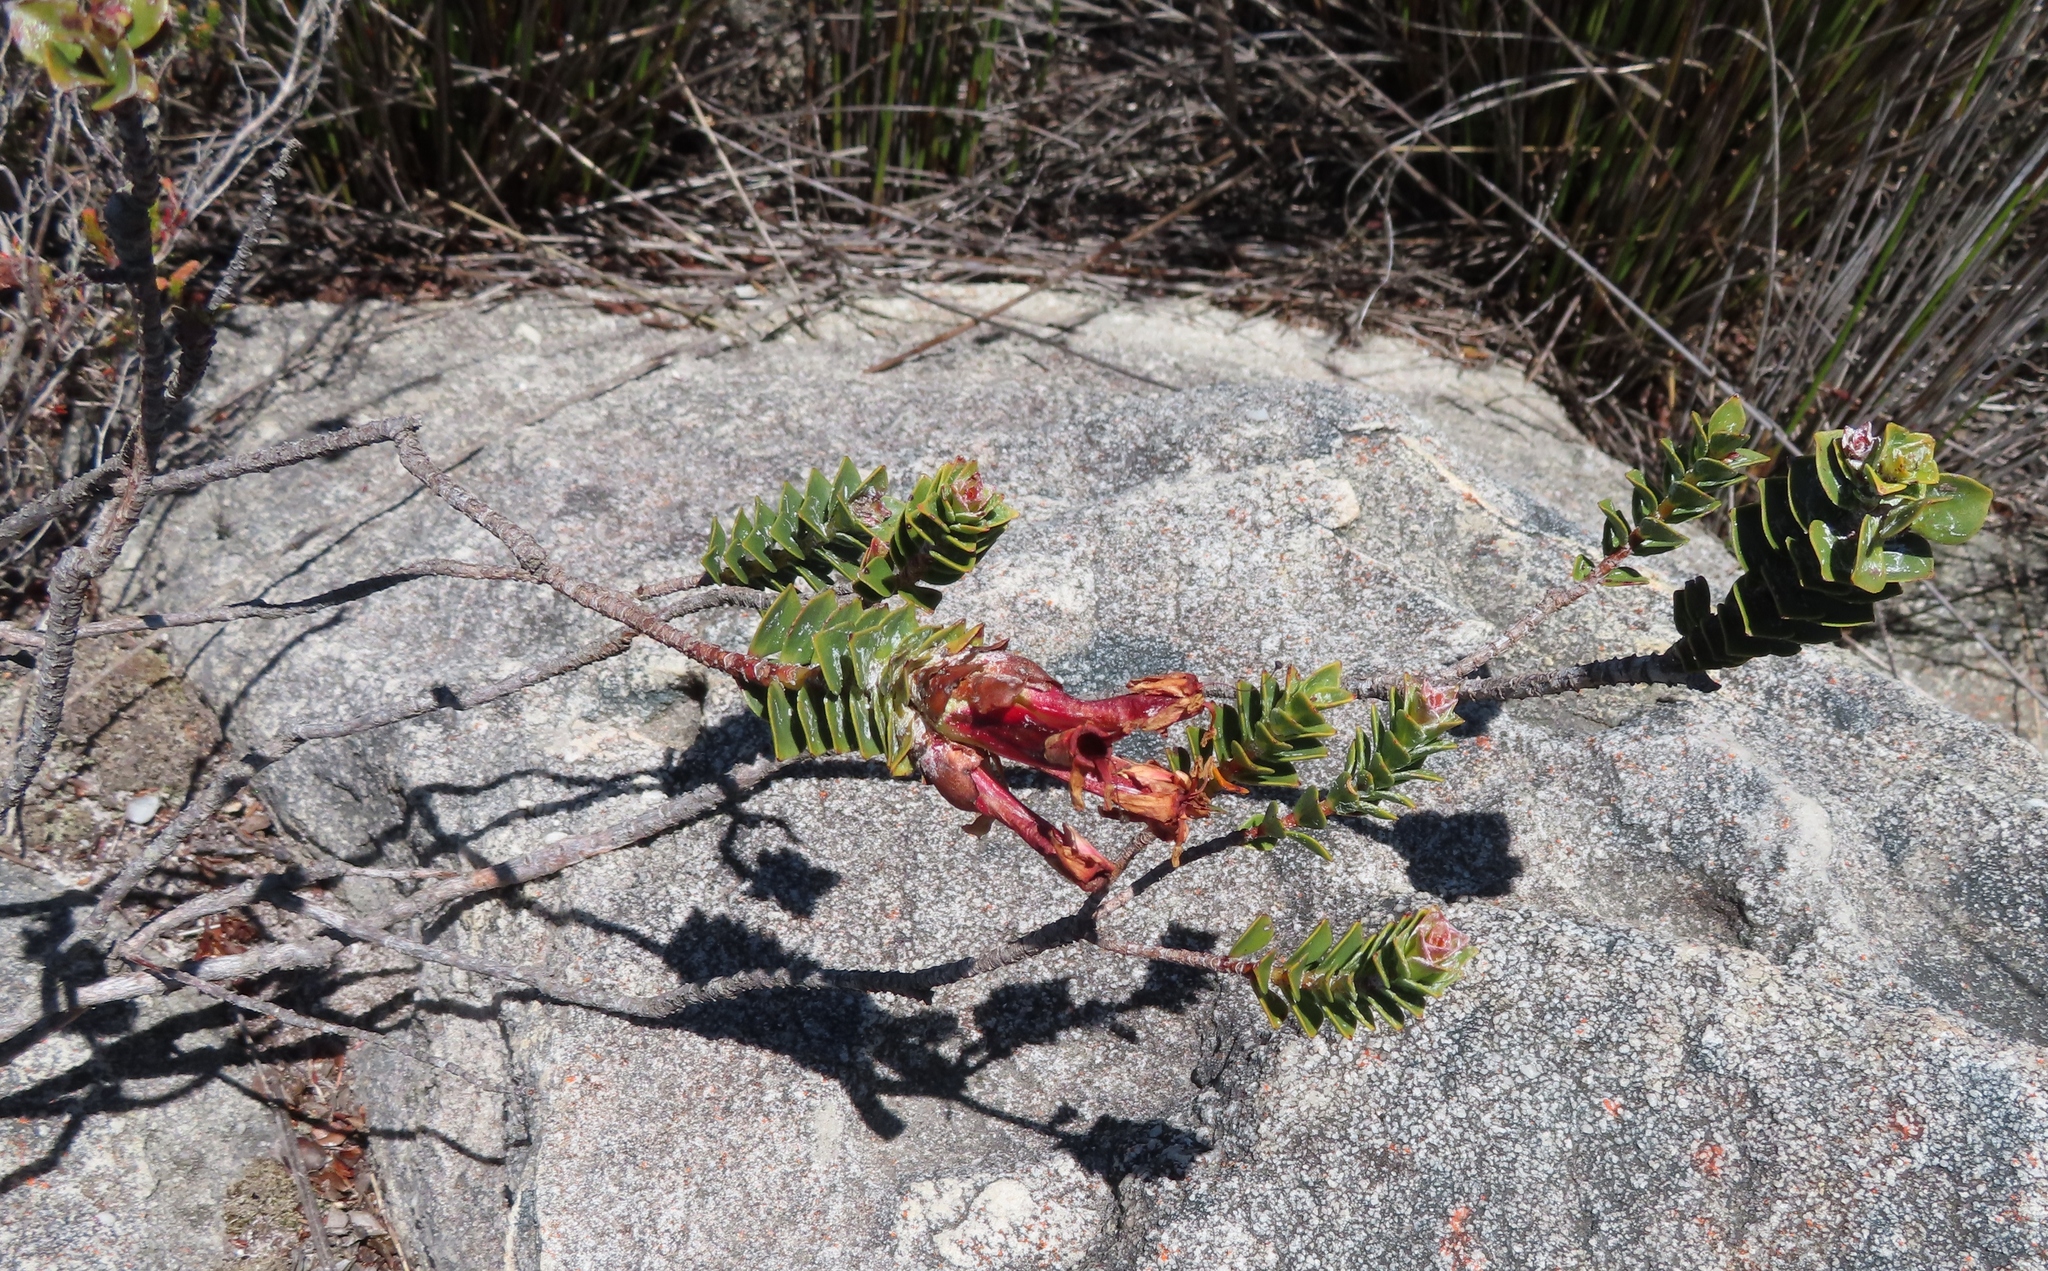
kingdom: Plantae
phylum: Tracheophyta
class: Magnoliopsida
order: Myrtales
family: Penaeaceae
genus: Saltera
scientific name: Saltera sarcocolla
